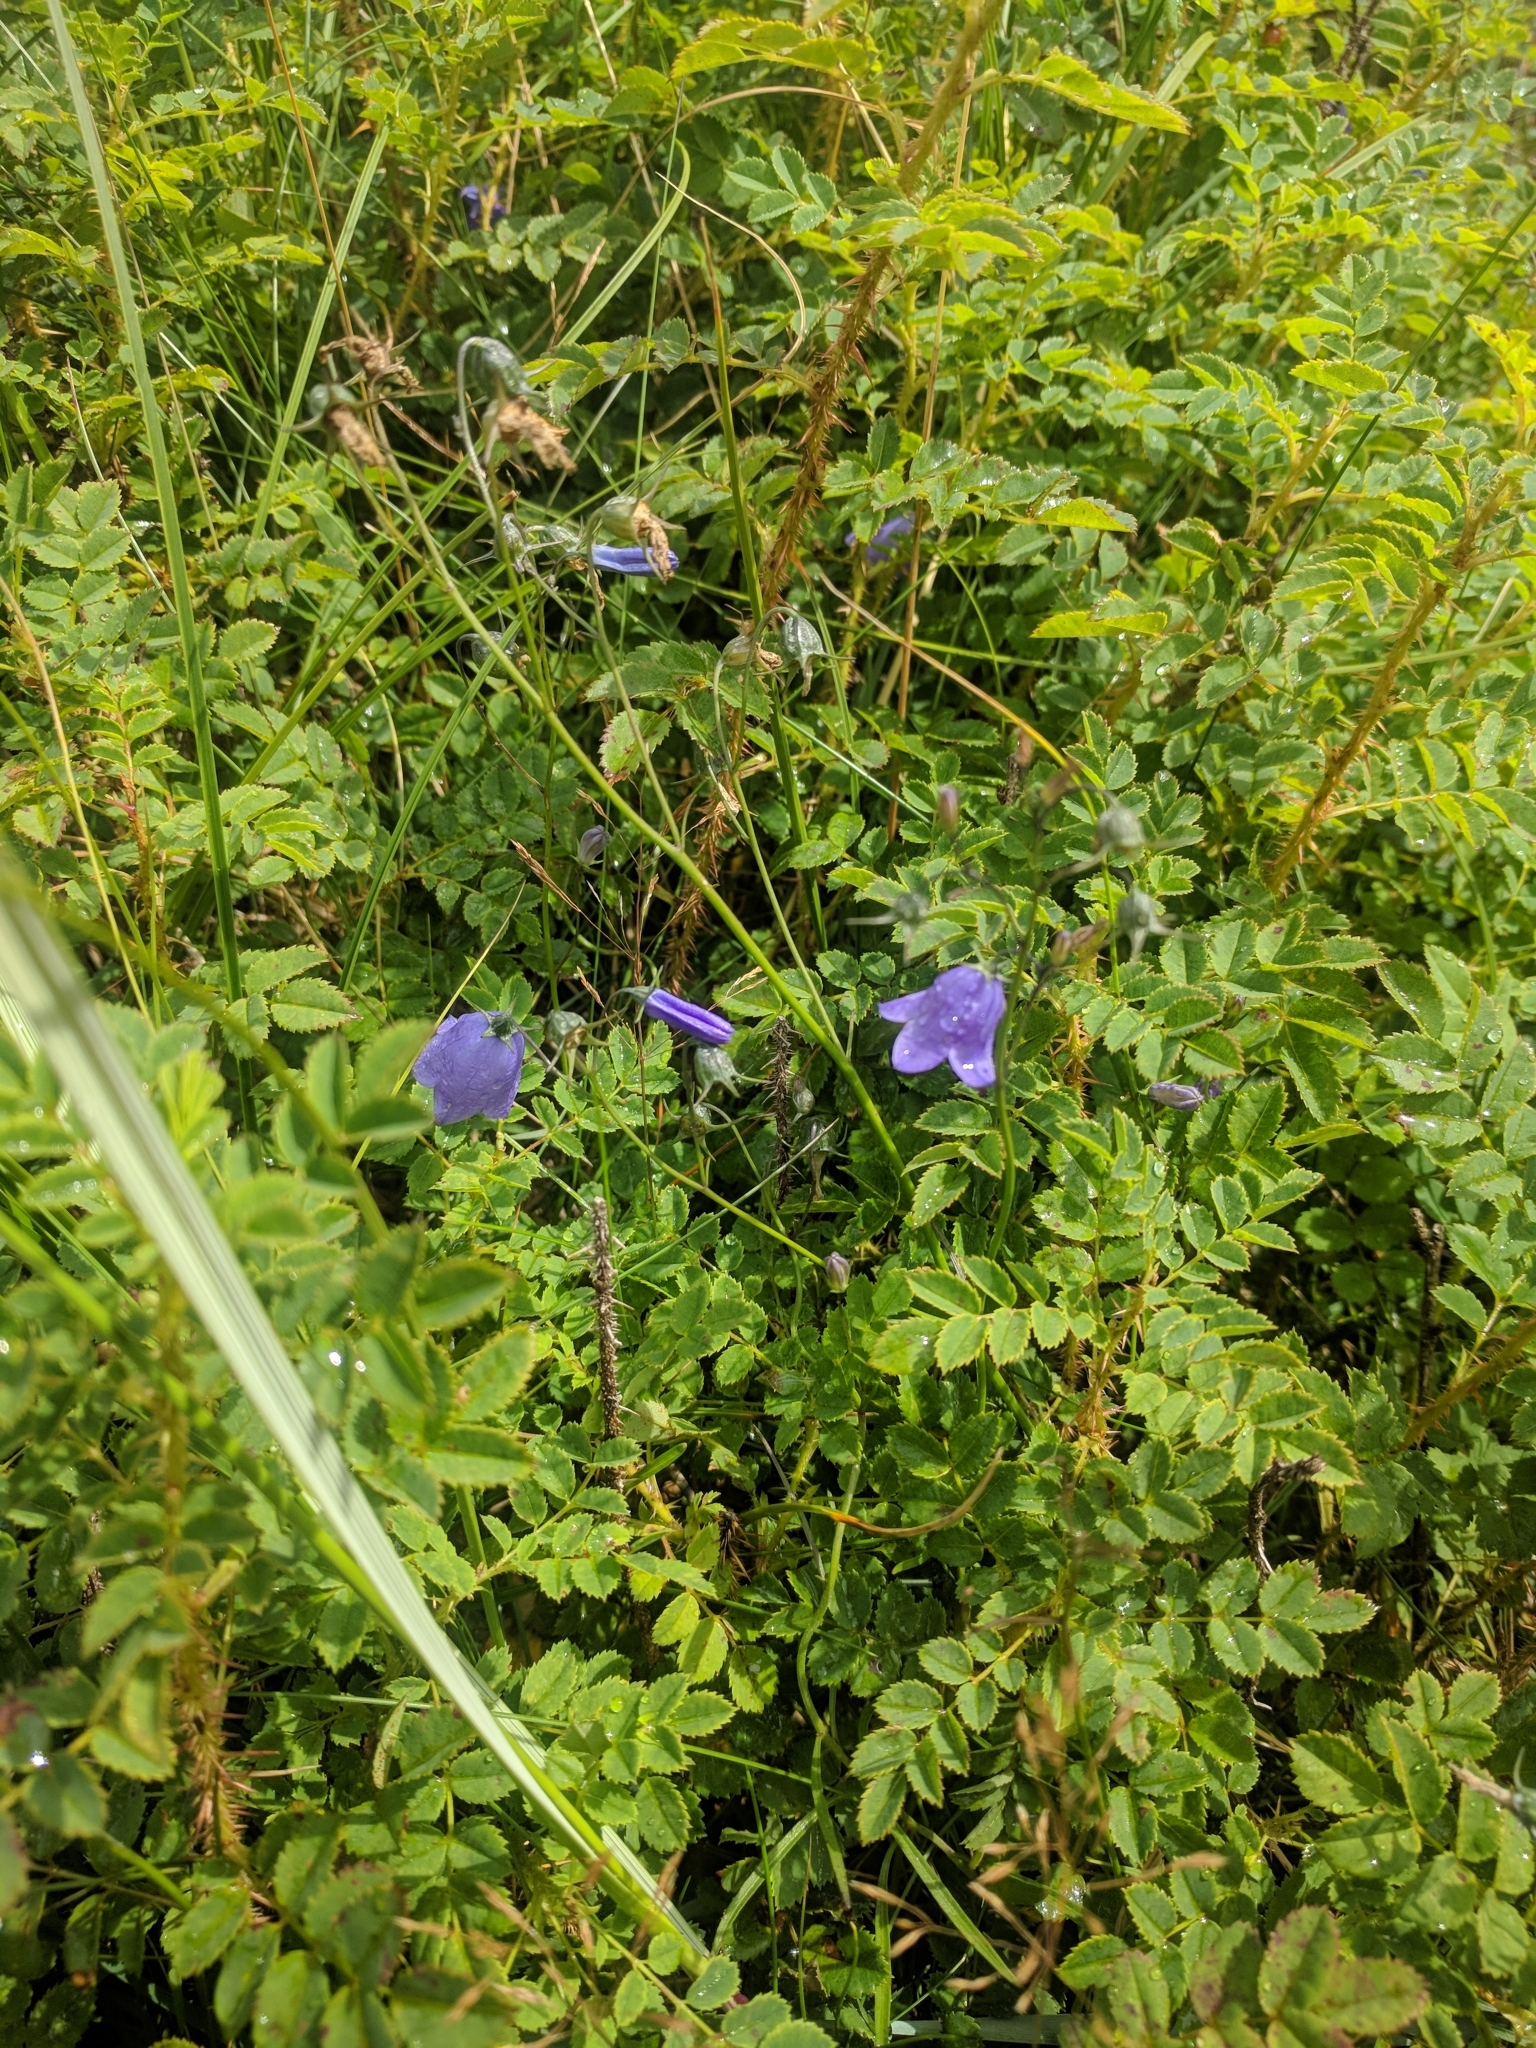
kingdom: Plantae
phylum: Tracheophyta
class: Magnoliopsida
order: Asterales
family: Campanulaceae
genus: Campanula
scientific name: Campanula rotundifolia
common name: Harebell
